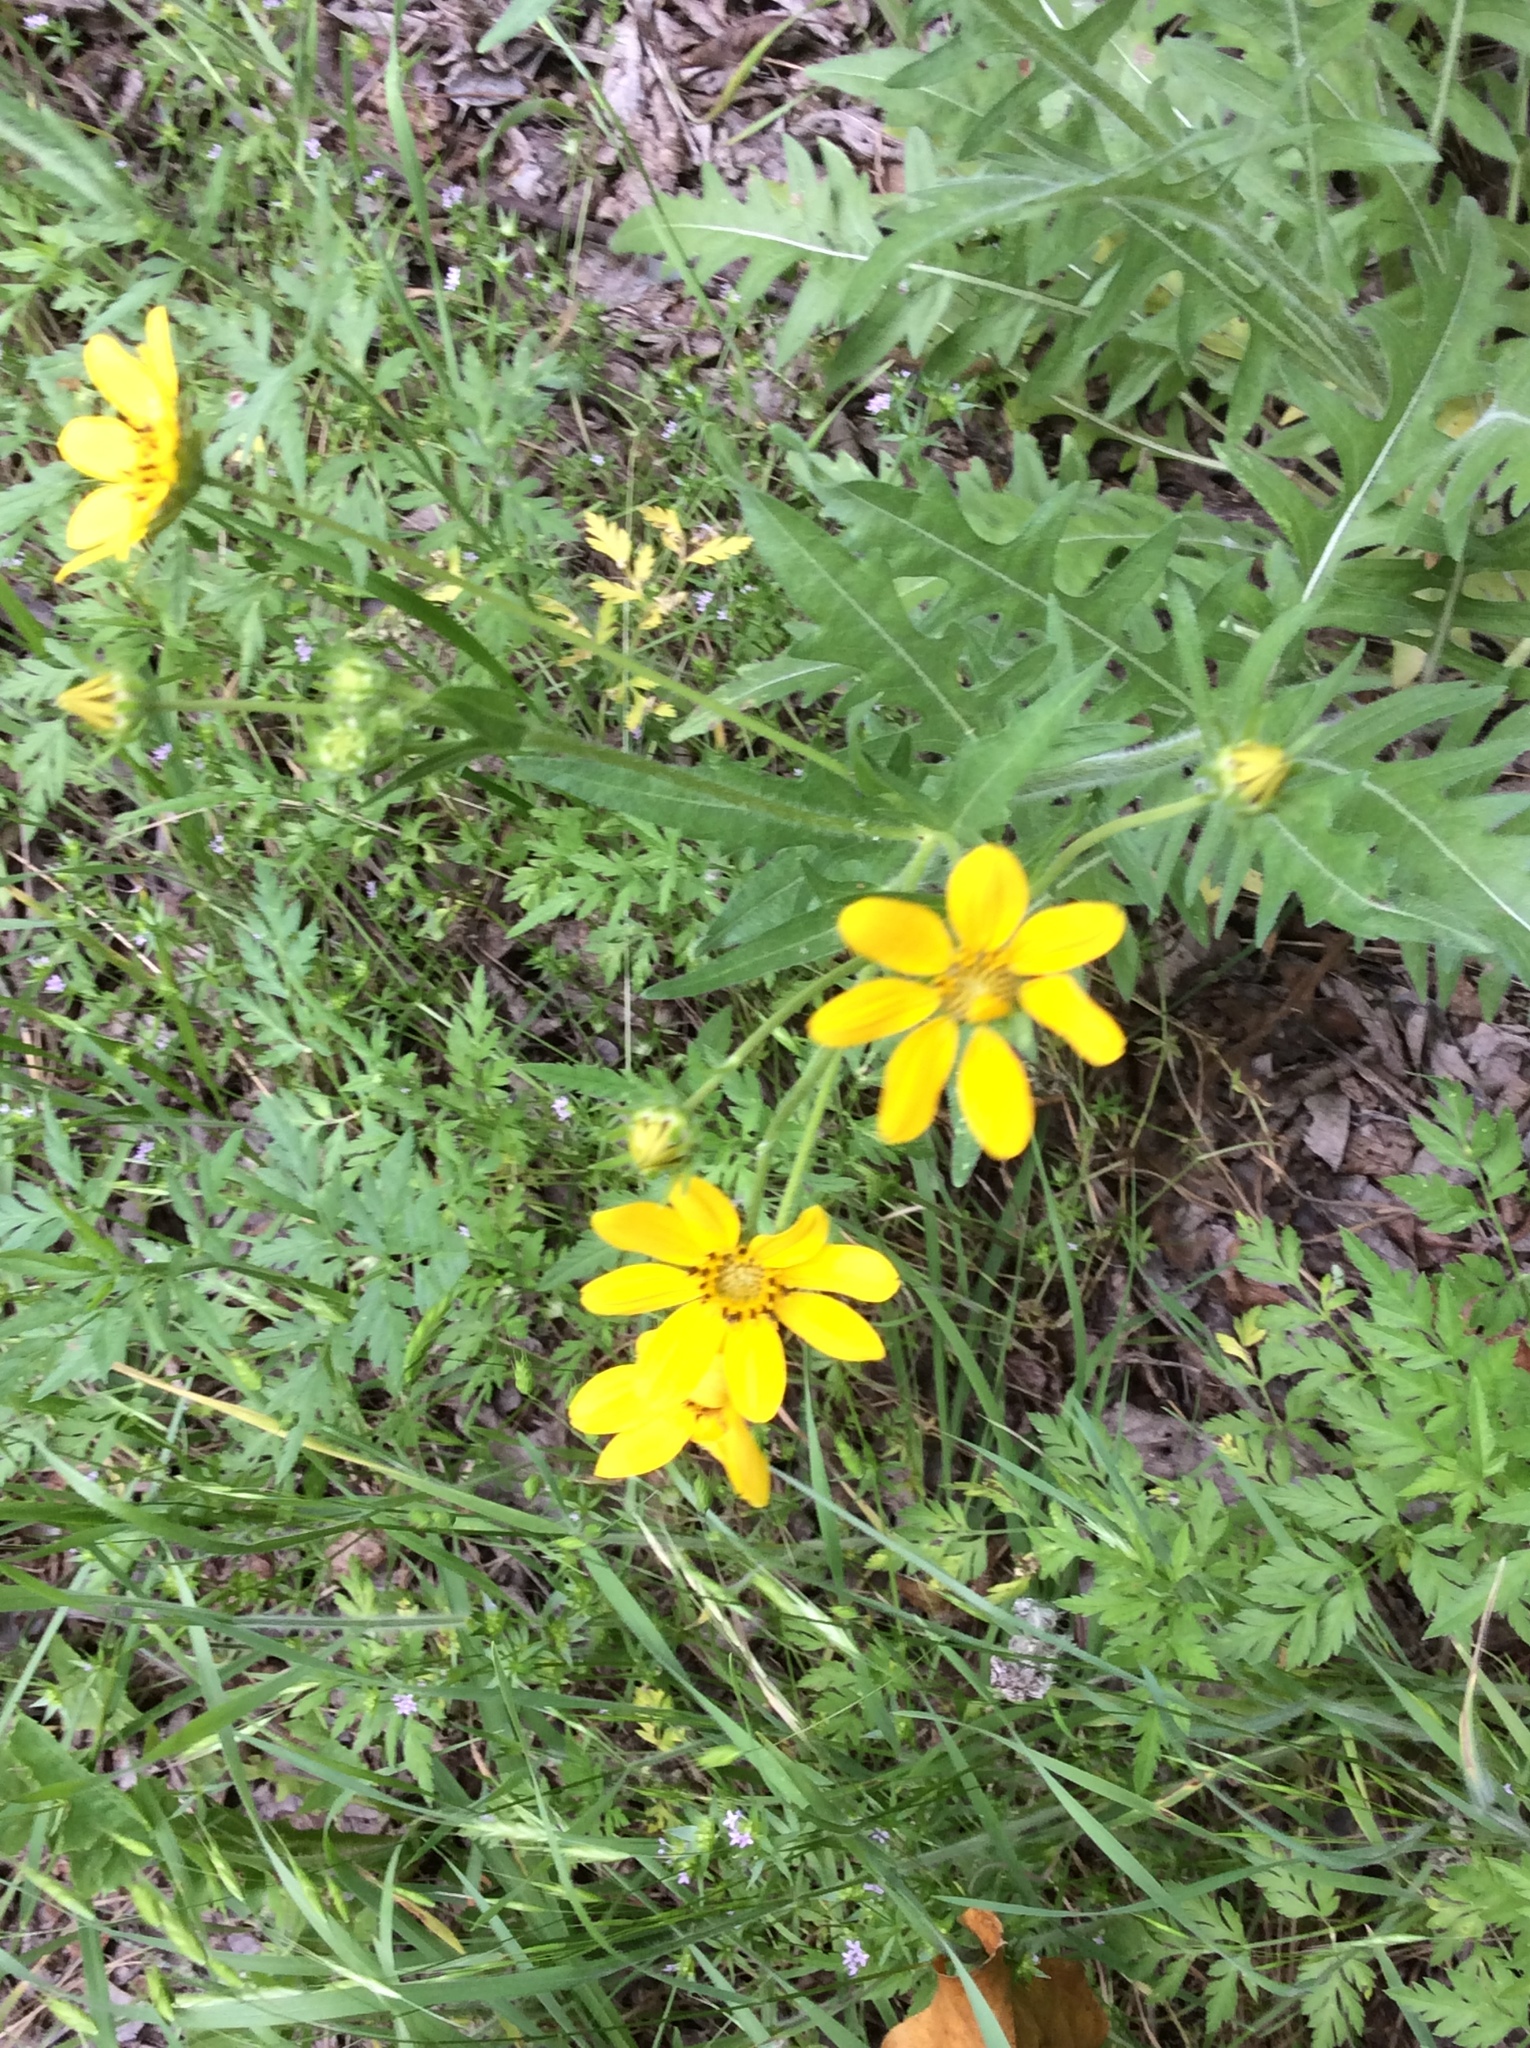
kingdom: Plantae
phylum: Tracheophyta
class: Magnoliopsida
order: Asterales
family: Asteraceae
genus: Engelmannia
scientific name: Engelmannia peristenia
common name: Engelmann's daisy
